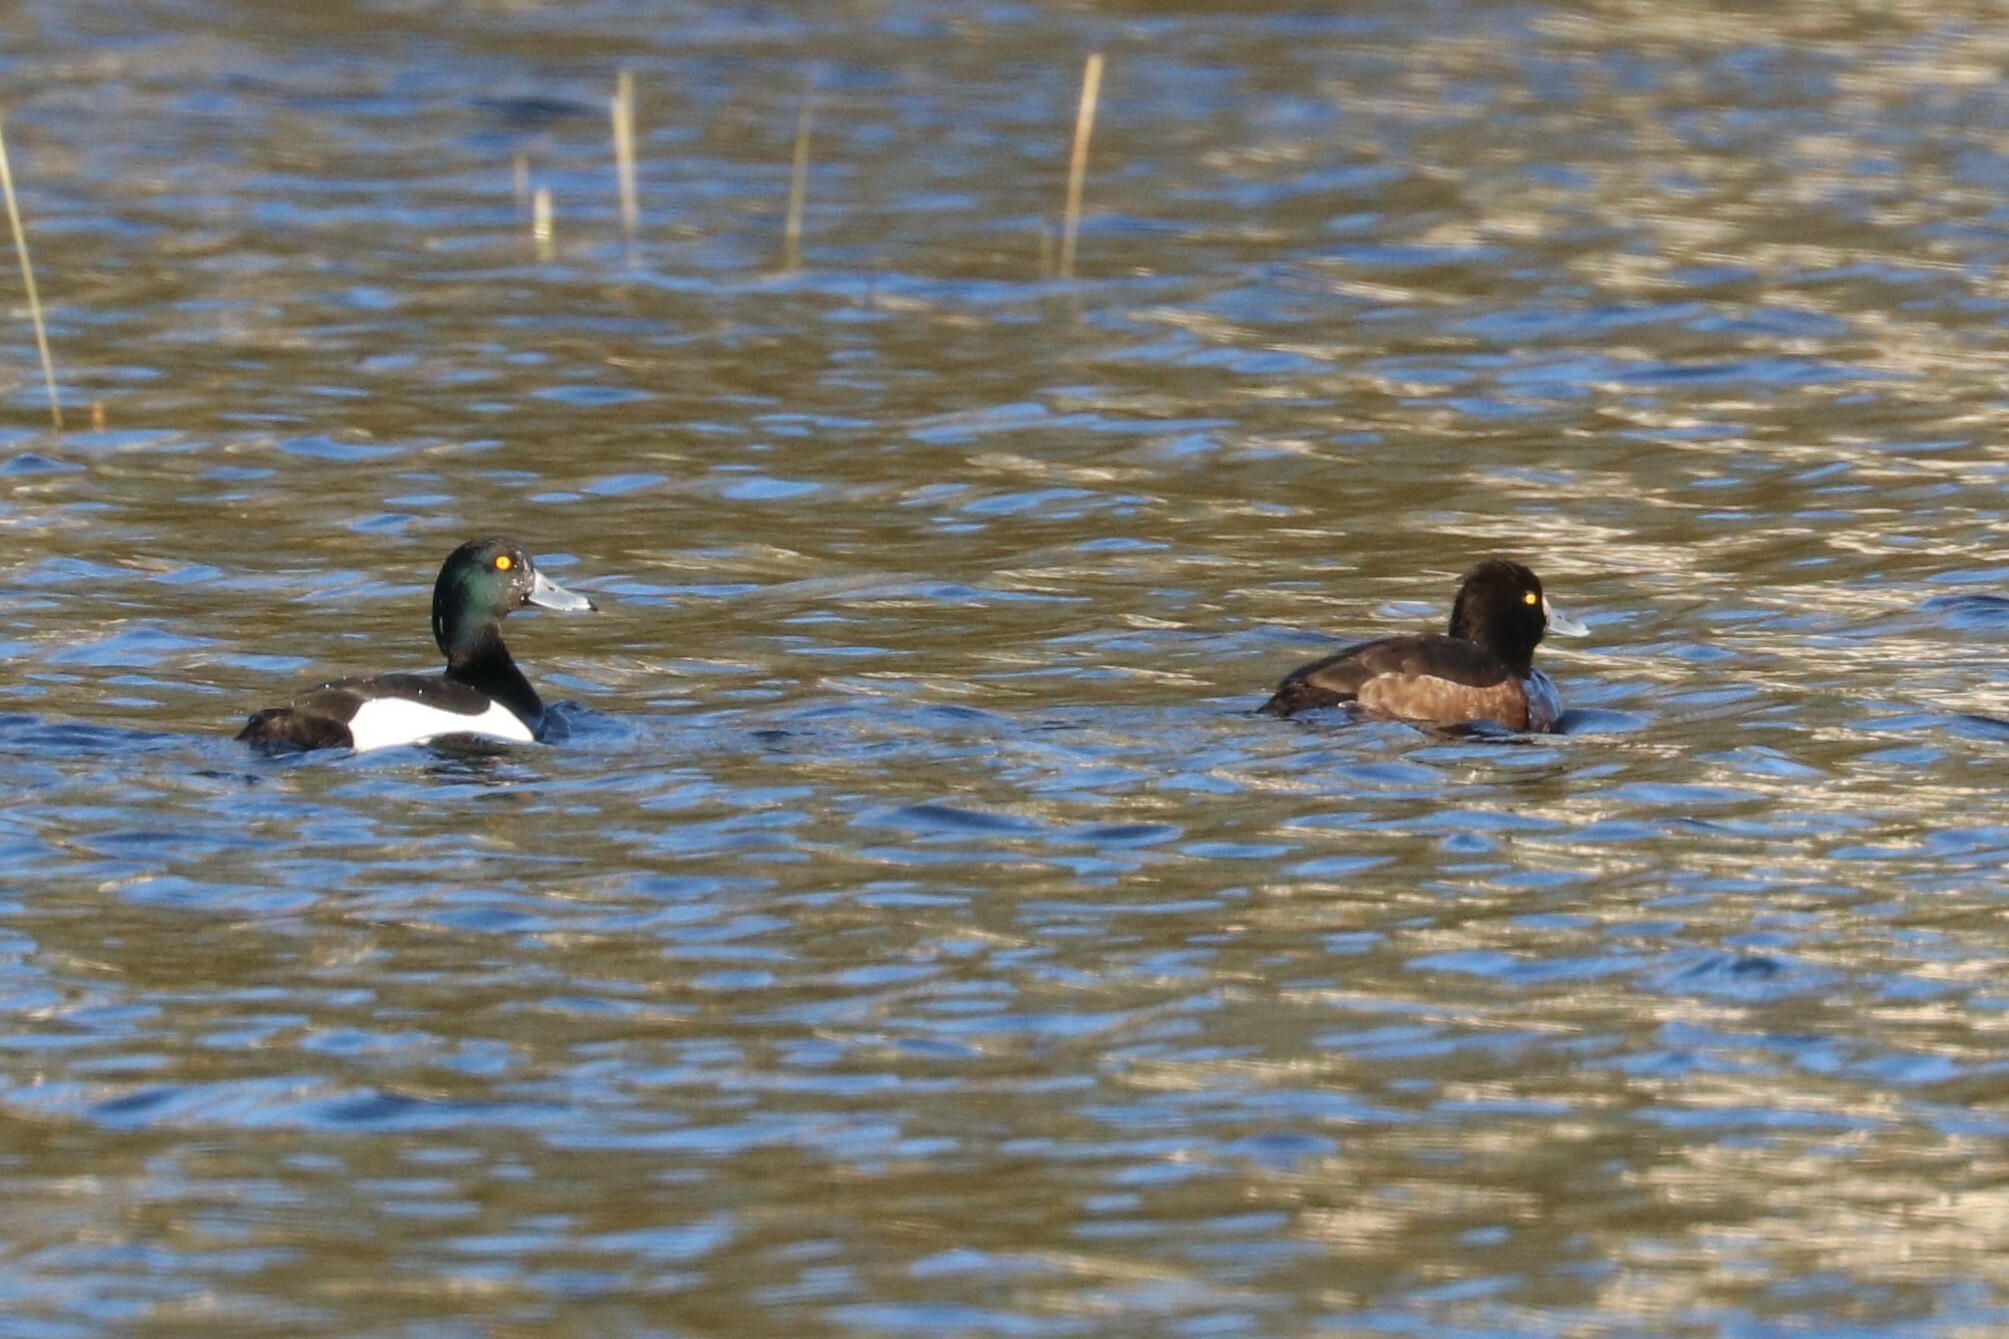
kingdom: Animalia
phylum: Chordata
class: Aves
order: Anseriformes
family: Anatidae
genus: Aythya
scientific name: Aythya fuligula
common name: Tufted duck
